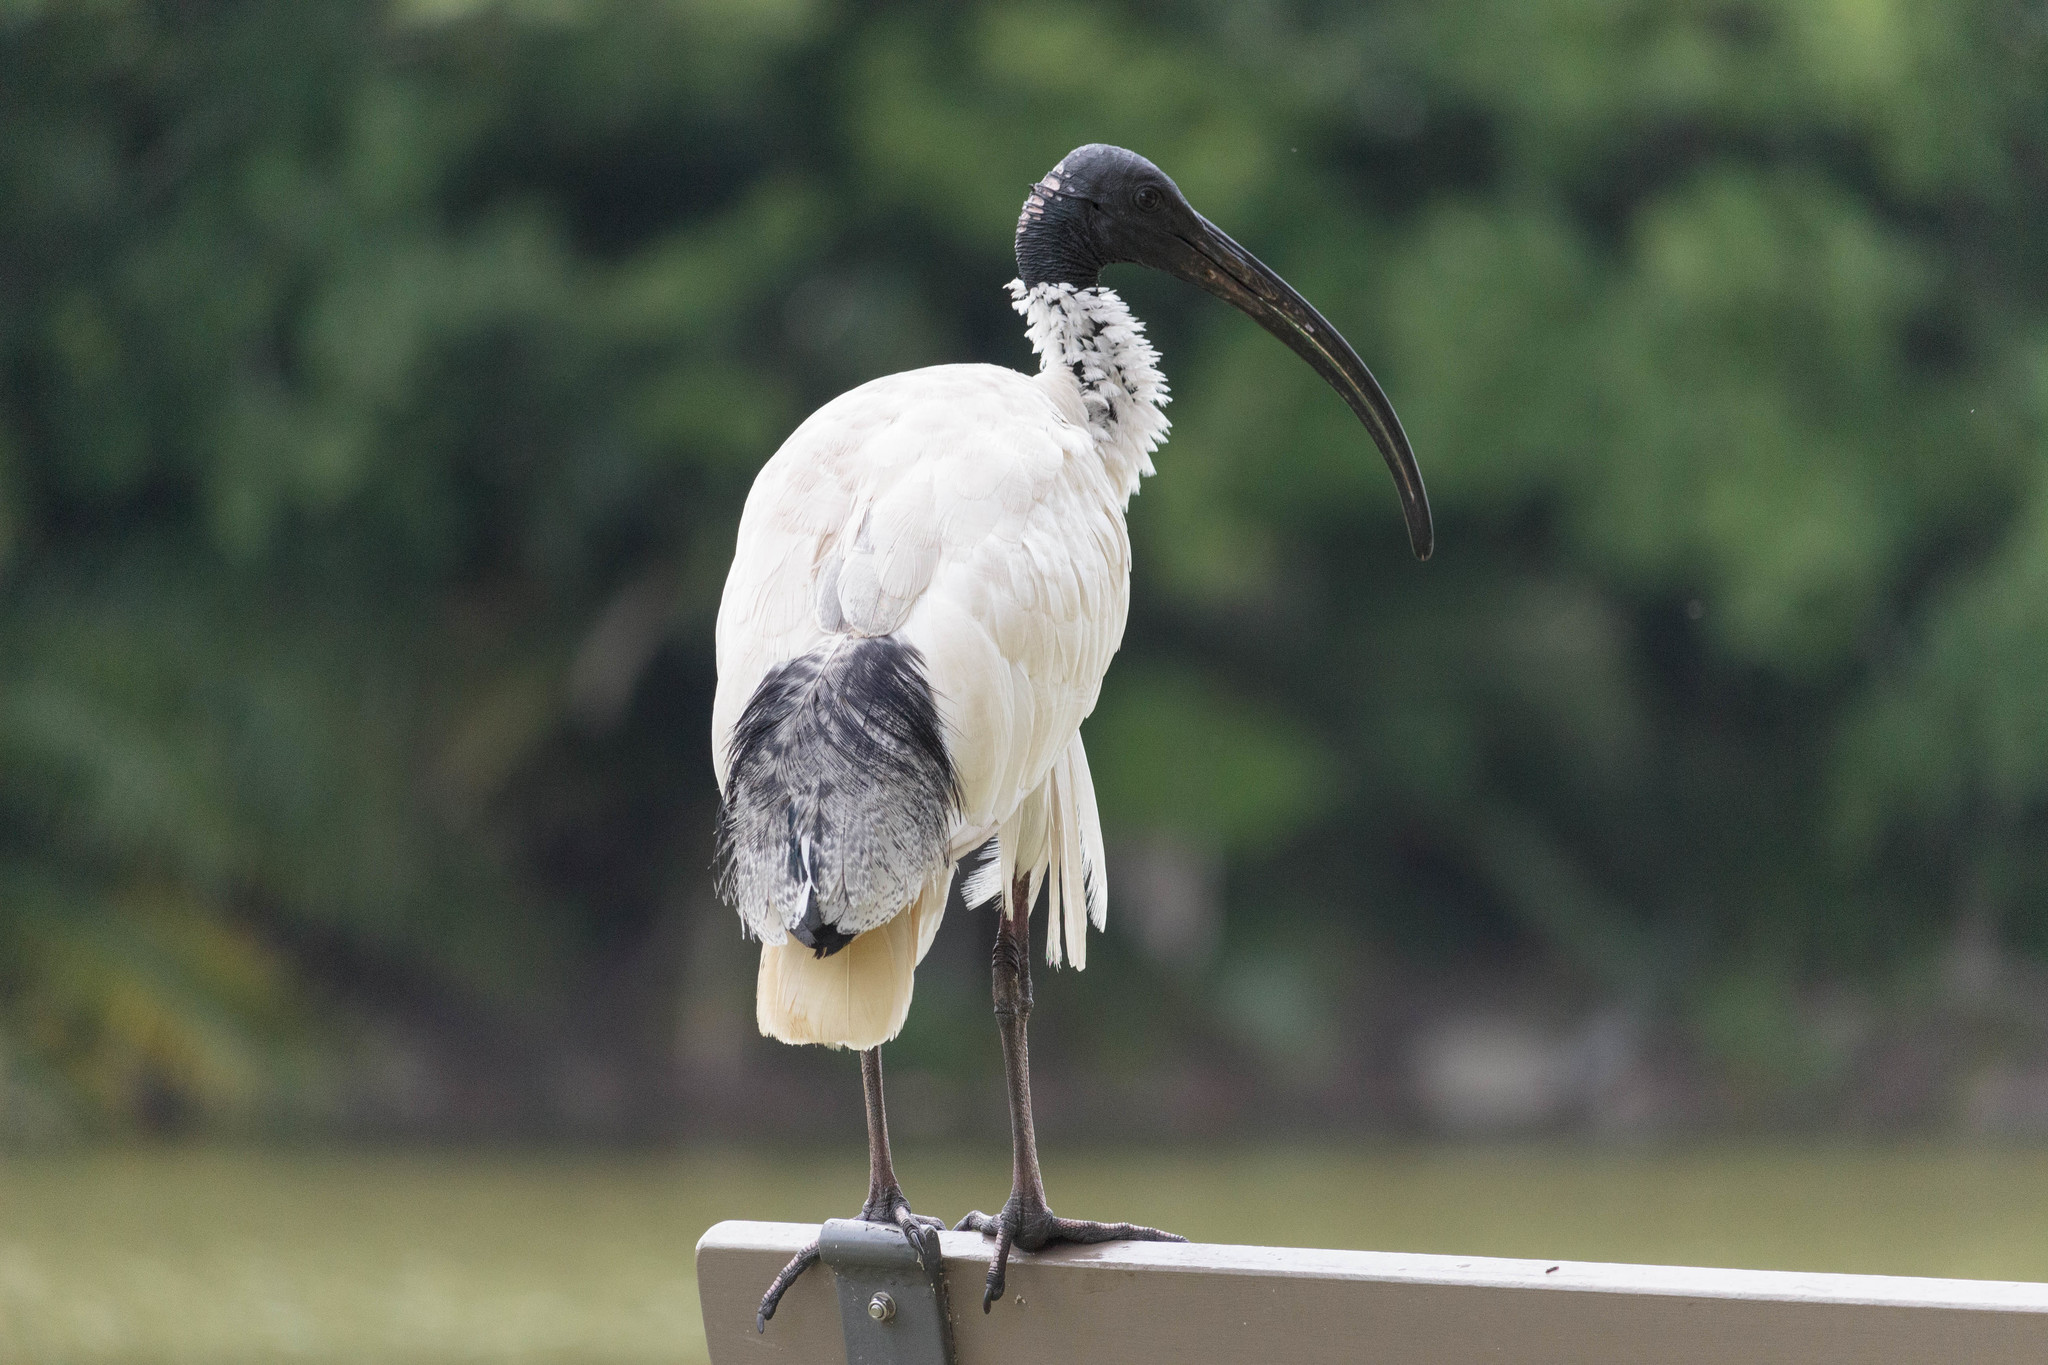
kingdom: Animalia
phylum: Chordata
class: Aves
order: Pelecaniformes
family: Threskiornithidae
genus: Threskiornis
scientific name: Threskiornis molucca
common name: Australian white ibis
